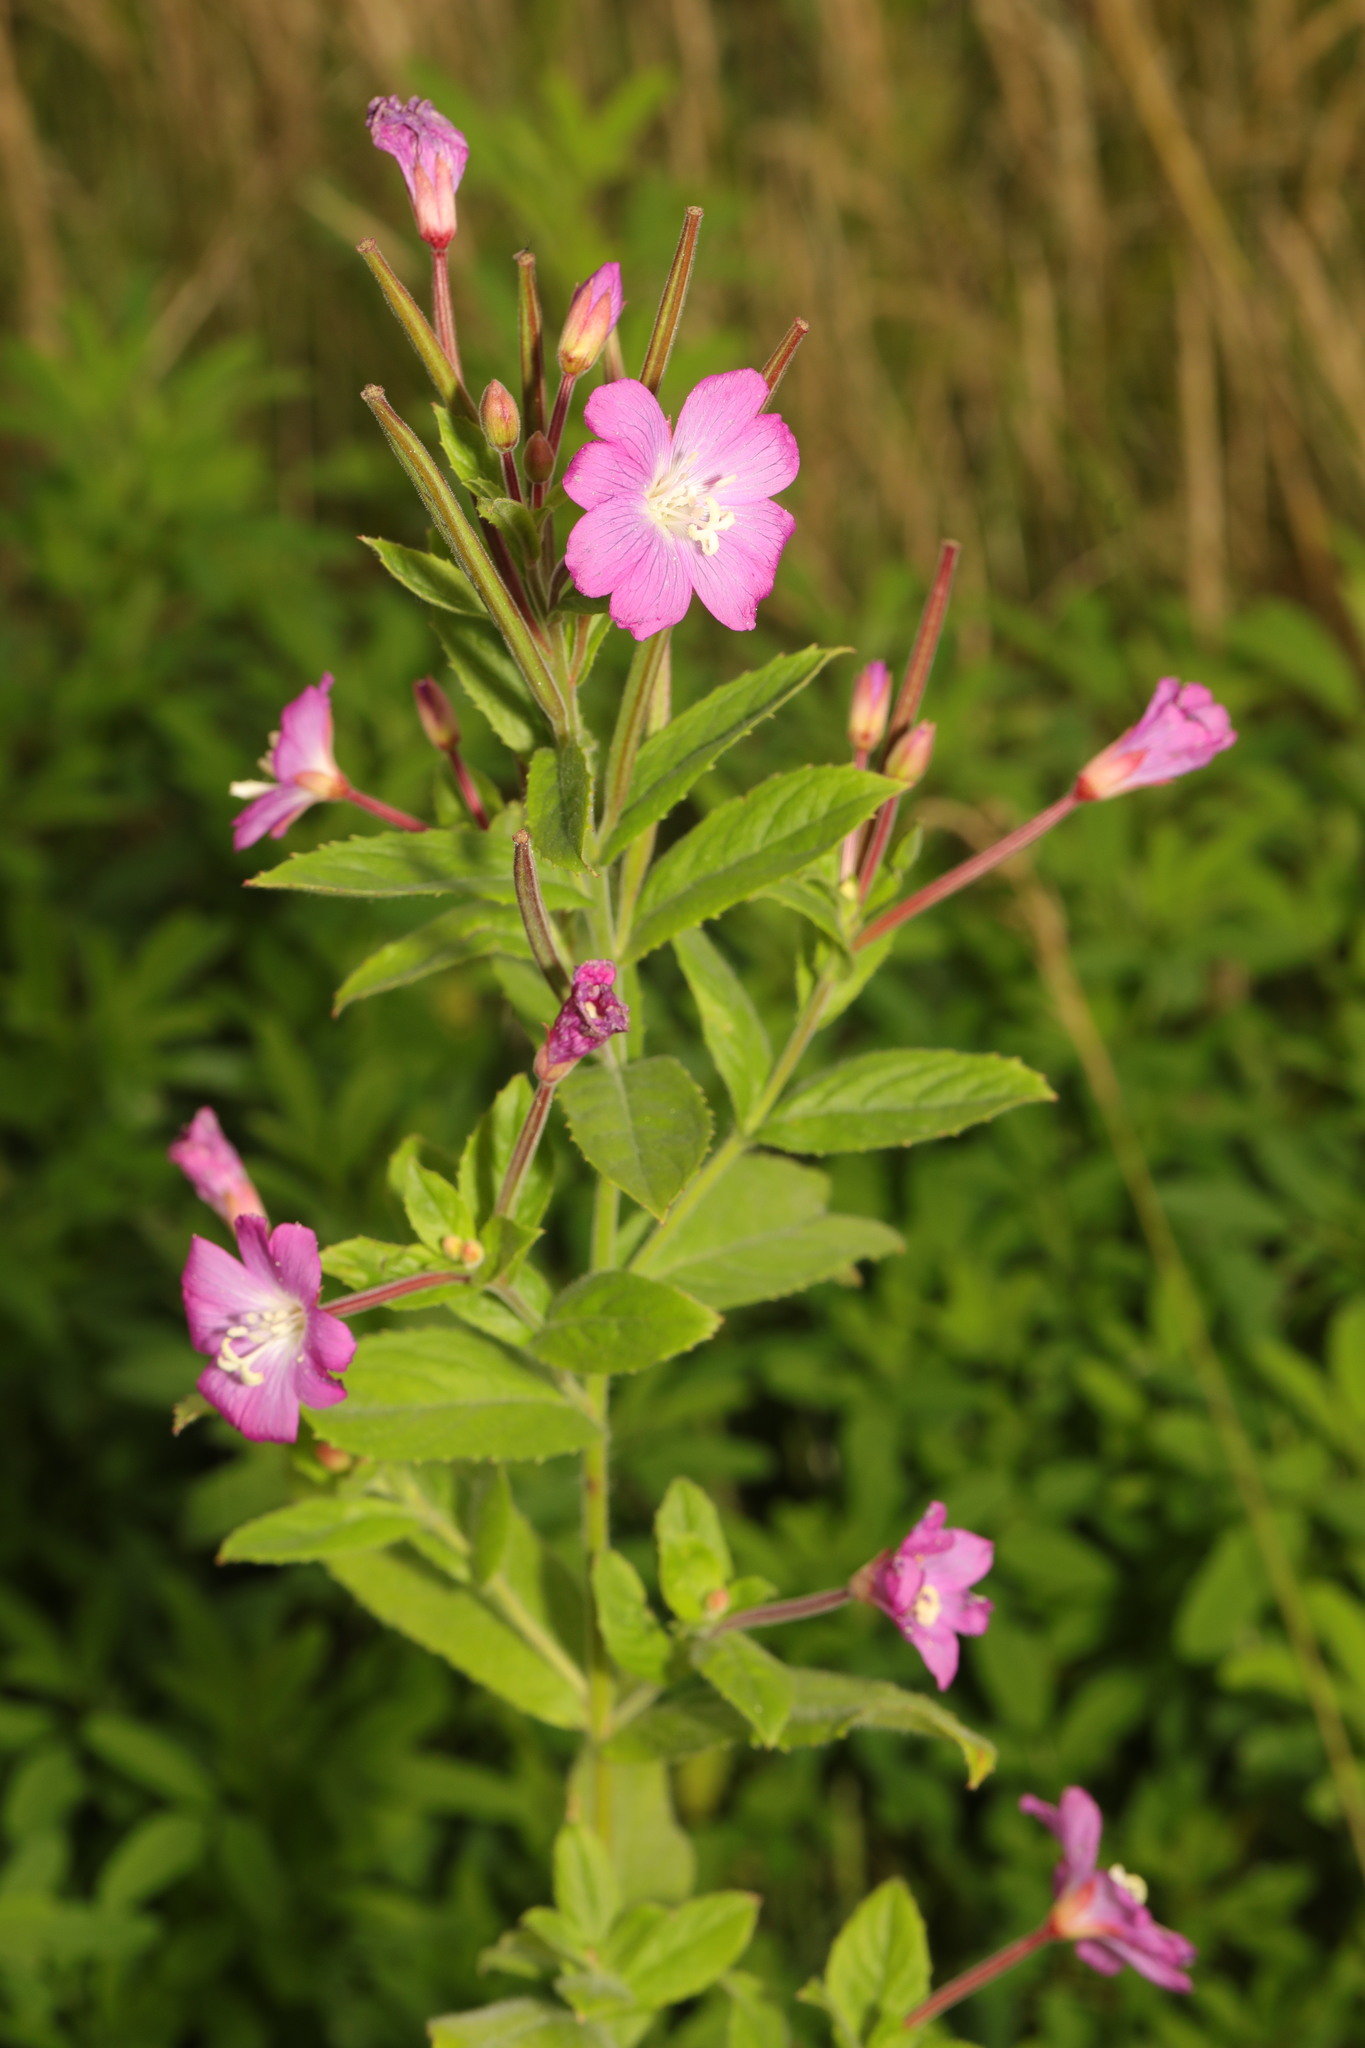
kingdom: Plantae
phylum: Tracheophyta
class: Magnoliopsida
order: Myrtales
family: Onagraceae
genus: Epilobium
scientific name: Epilobium hirsutum
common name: Great willowherb
